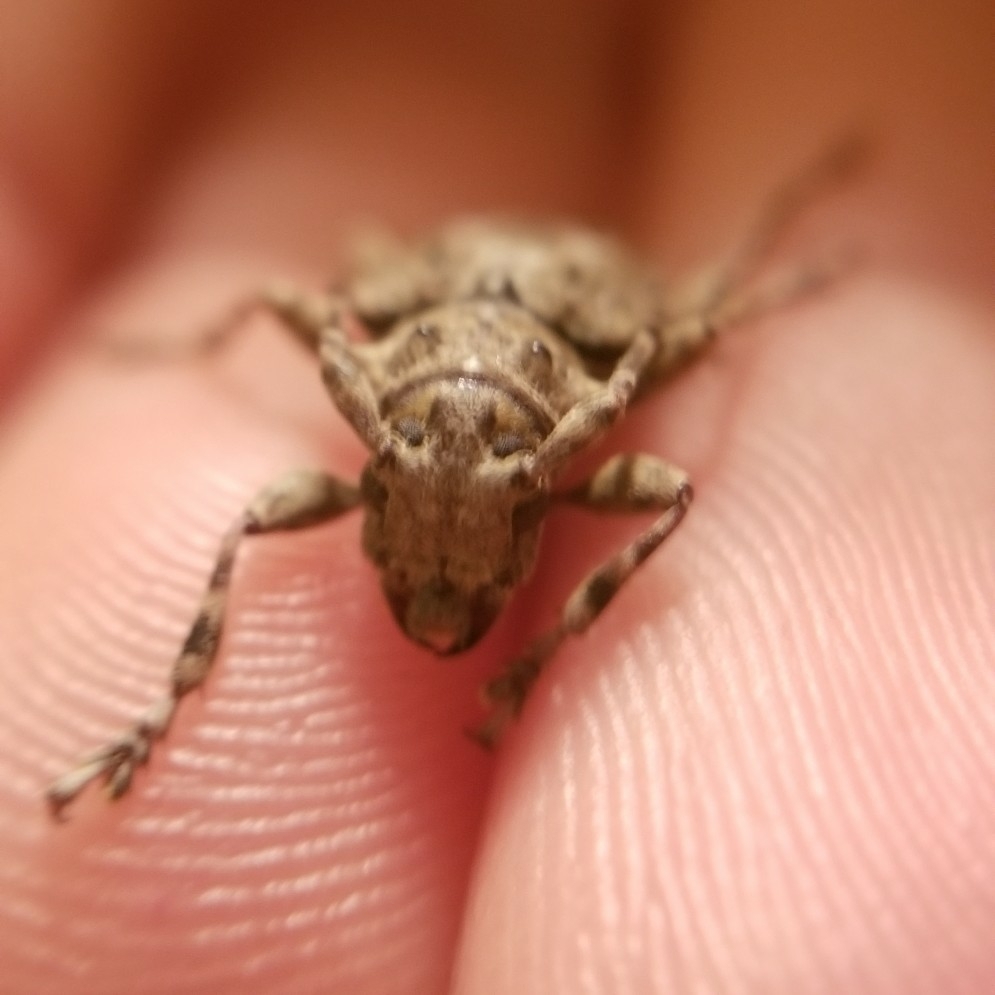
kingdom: Animalia
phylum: Arthropoda
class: Insecta
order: Coleoptera
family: Cerambycidae
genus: Aegomorphus
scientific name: Aegomorphus modestus
